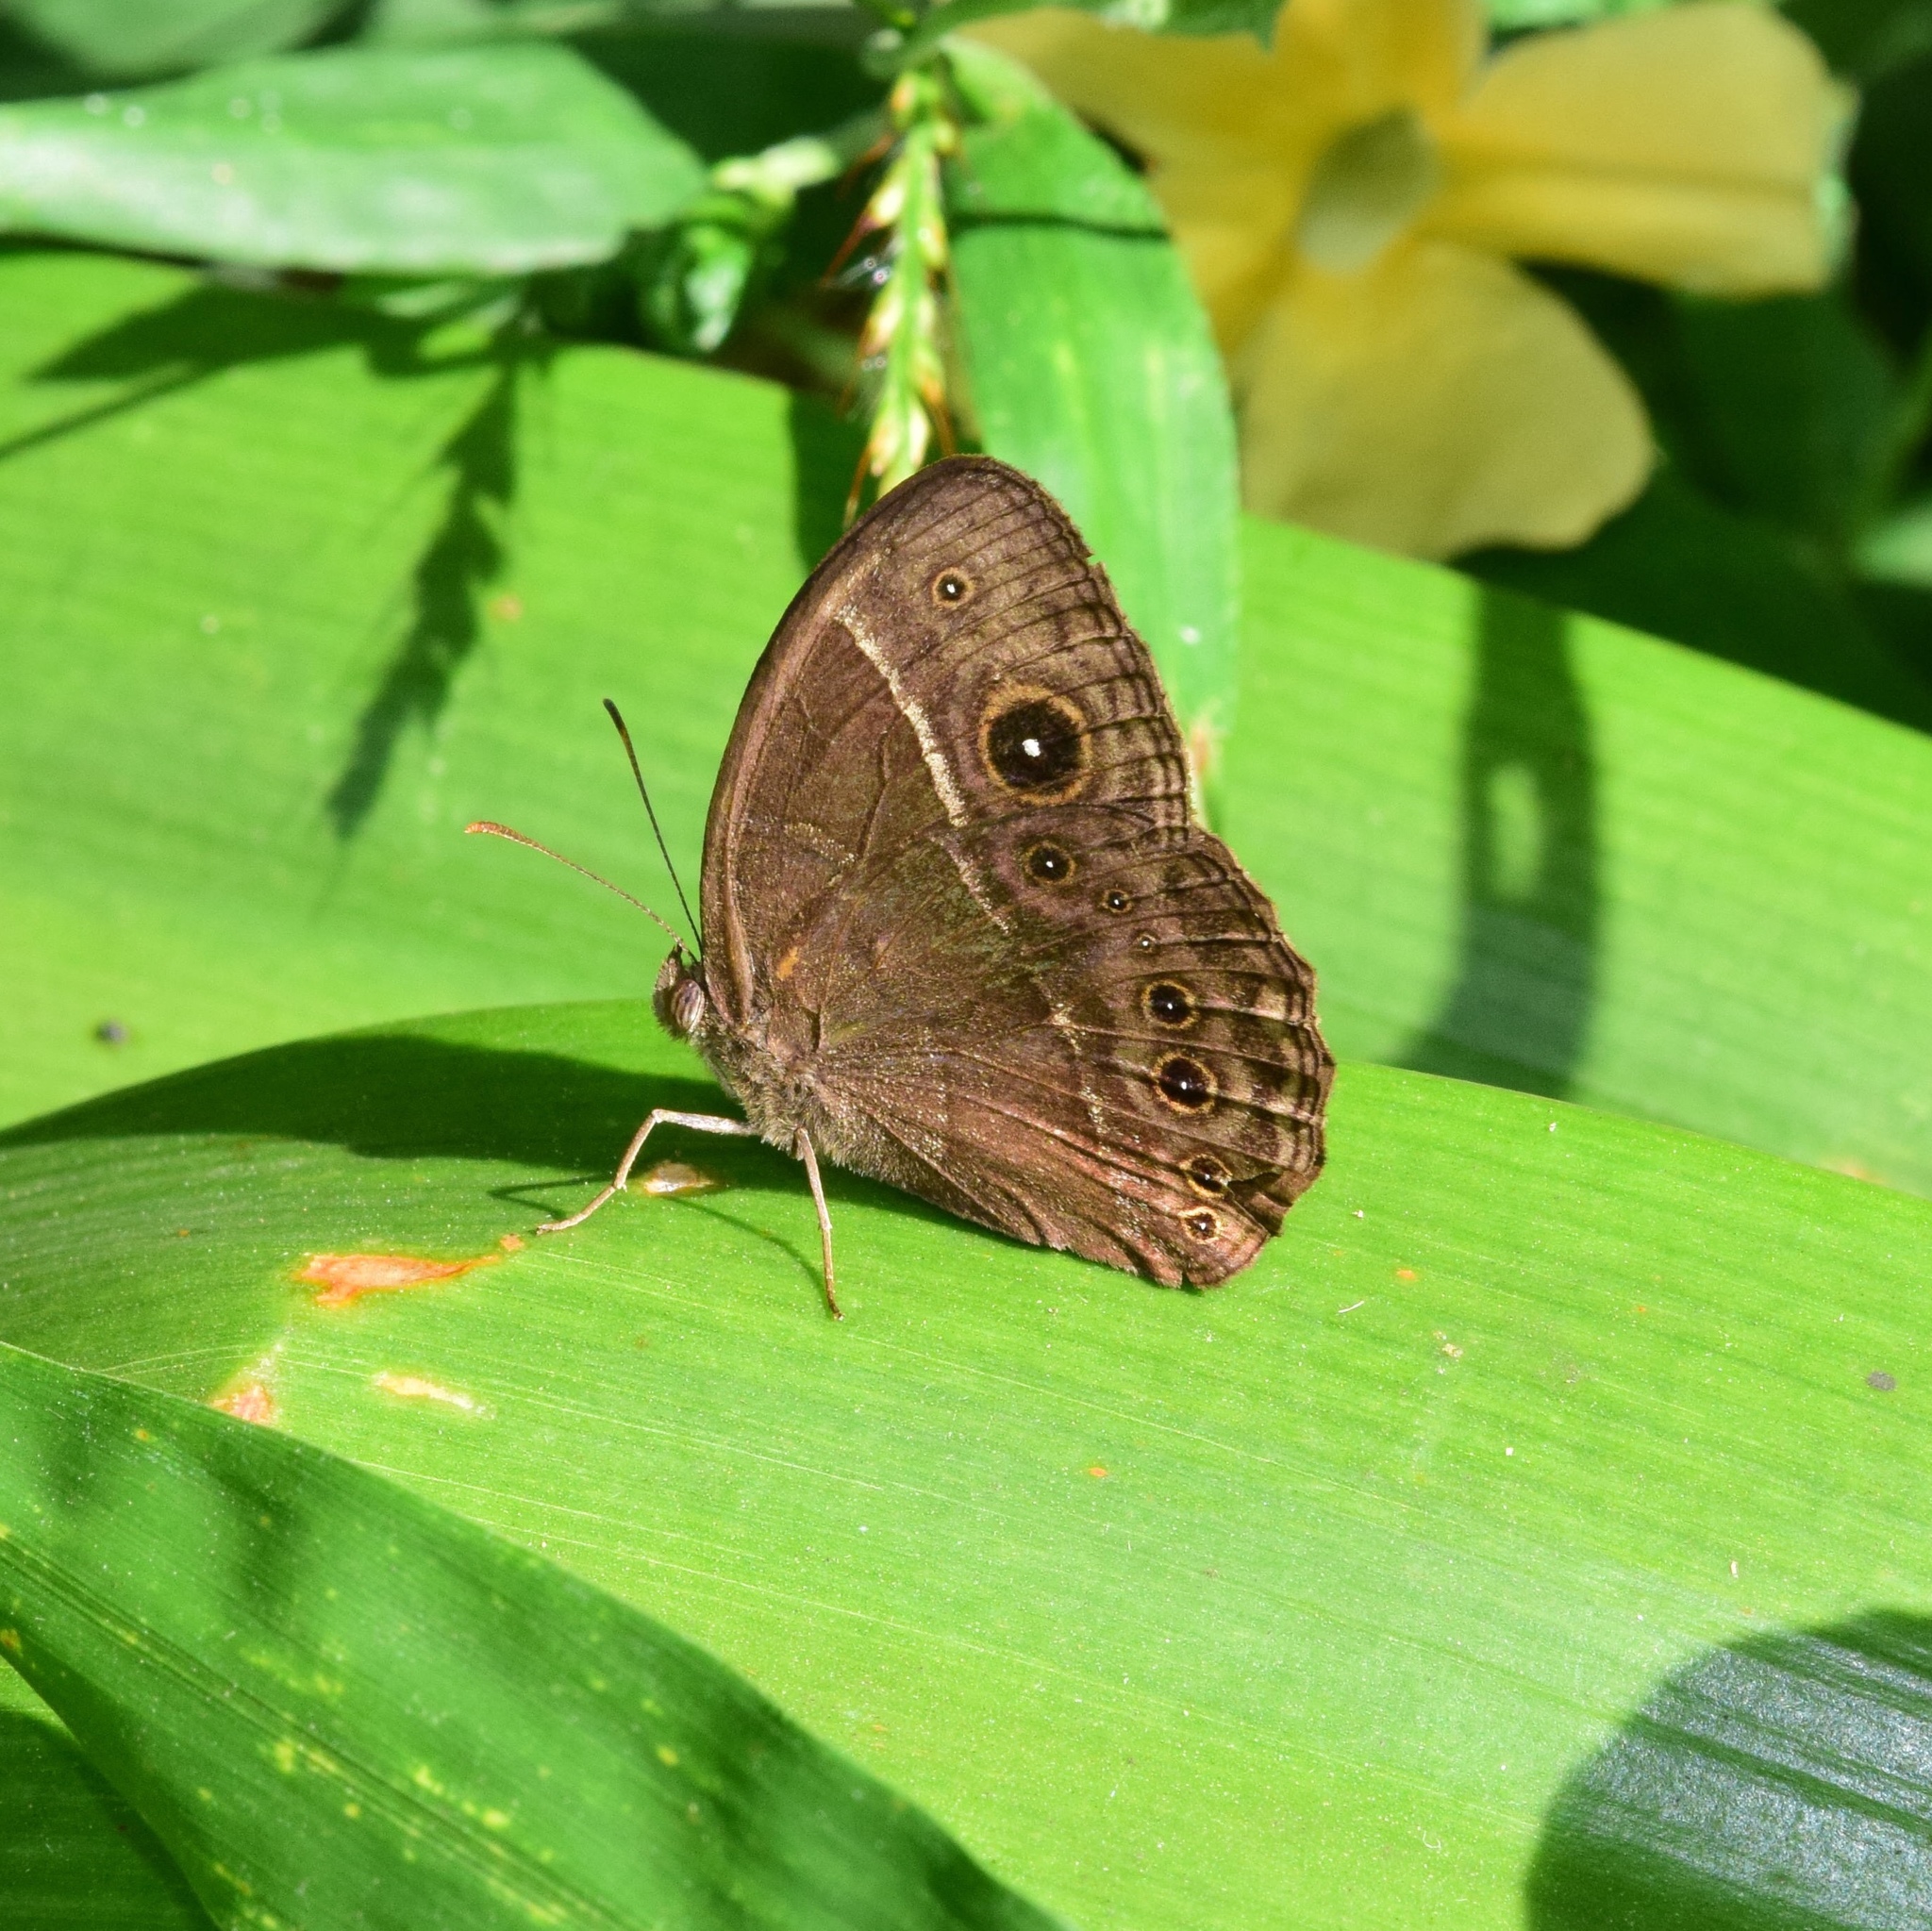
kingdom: Animalia
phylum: Arthropoda
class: Insecta
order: Lepidoptera
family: Nymphalidae
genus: Mycalesis
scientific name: Mycalesis rhacotis
